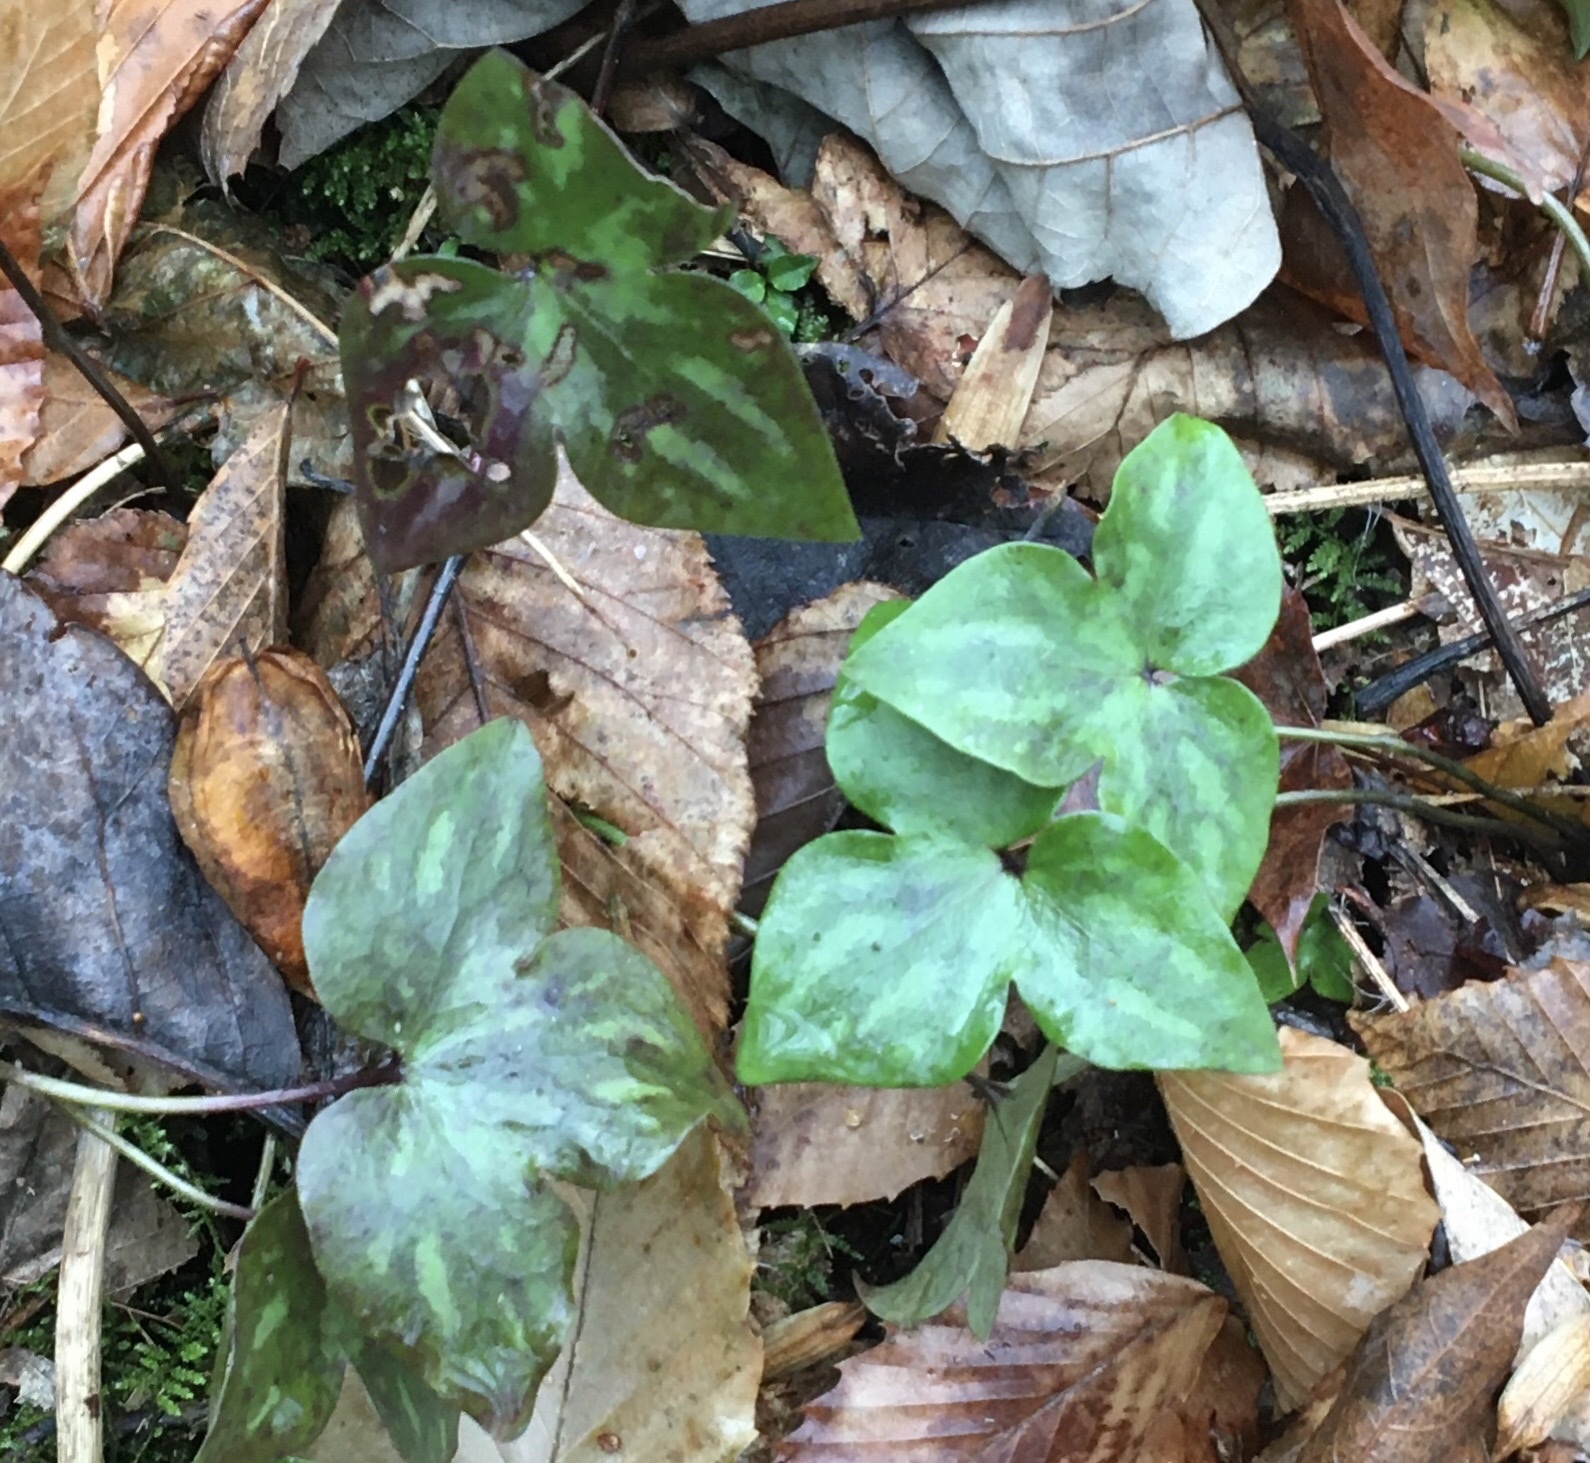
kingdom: Plantae
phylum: Tracheophyta
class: Magnoliopsida
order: Ranunculales
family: Ranunculaceae
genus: Hepatica
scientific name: Hepatica acutiloba
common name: Sharp-lobed hepatica
